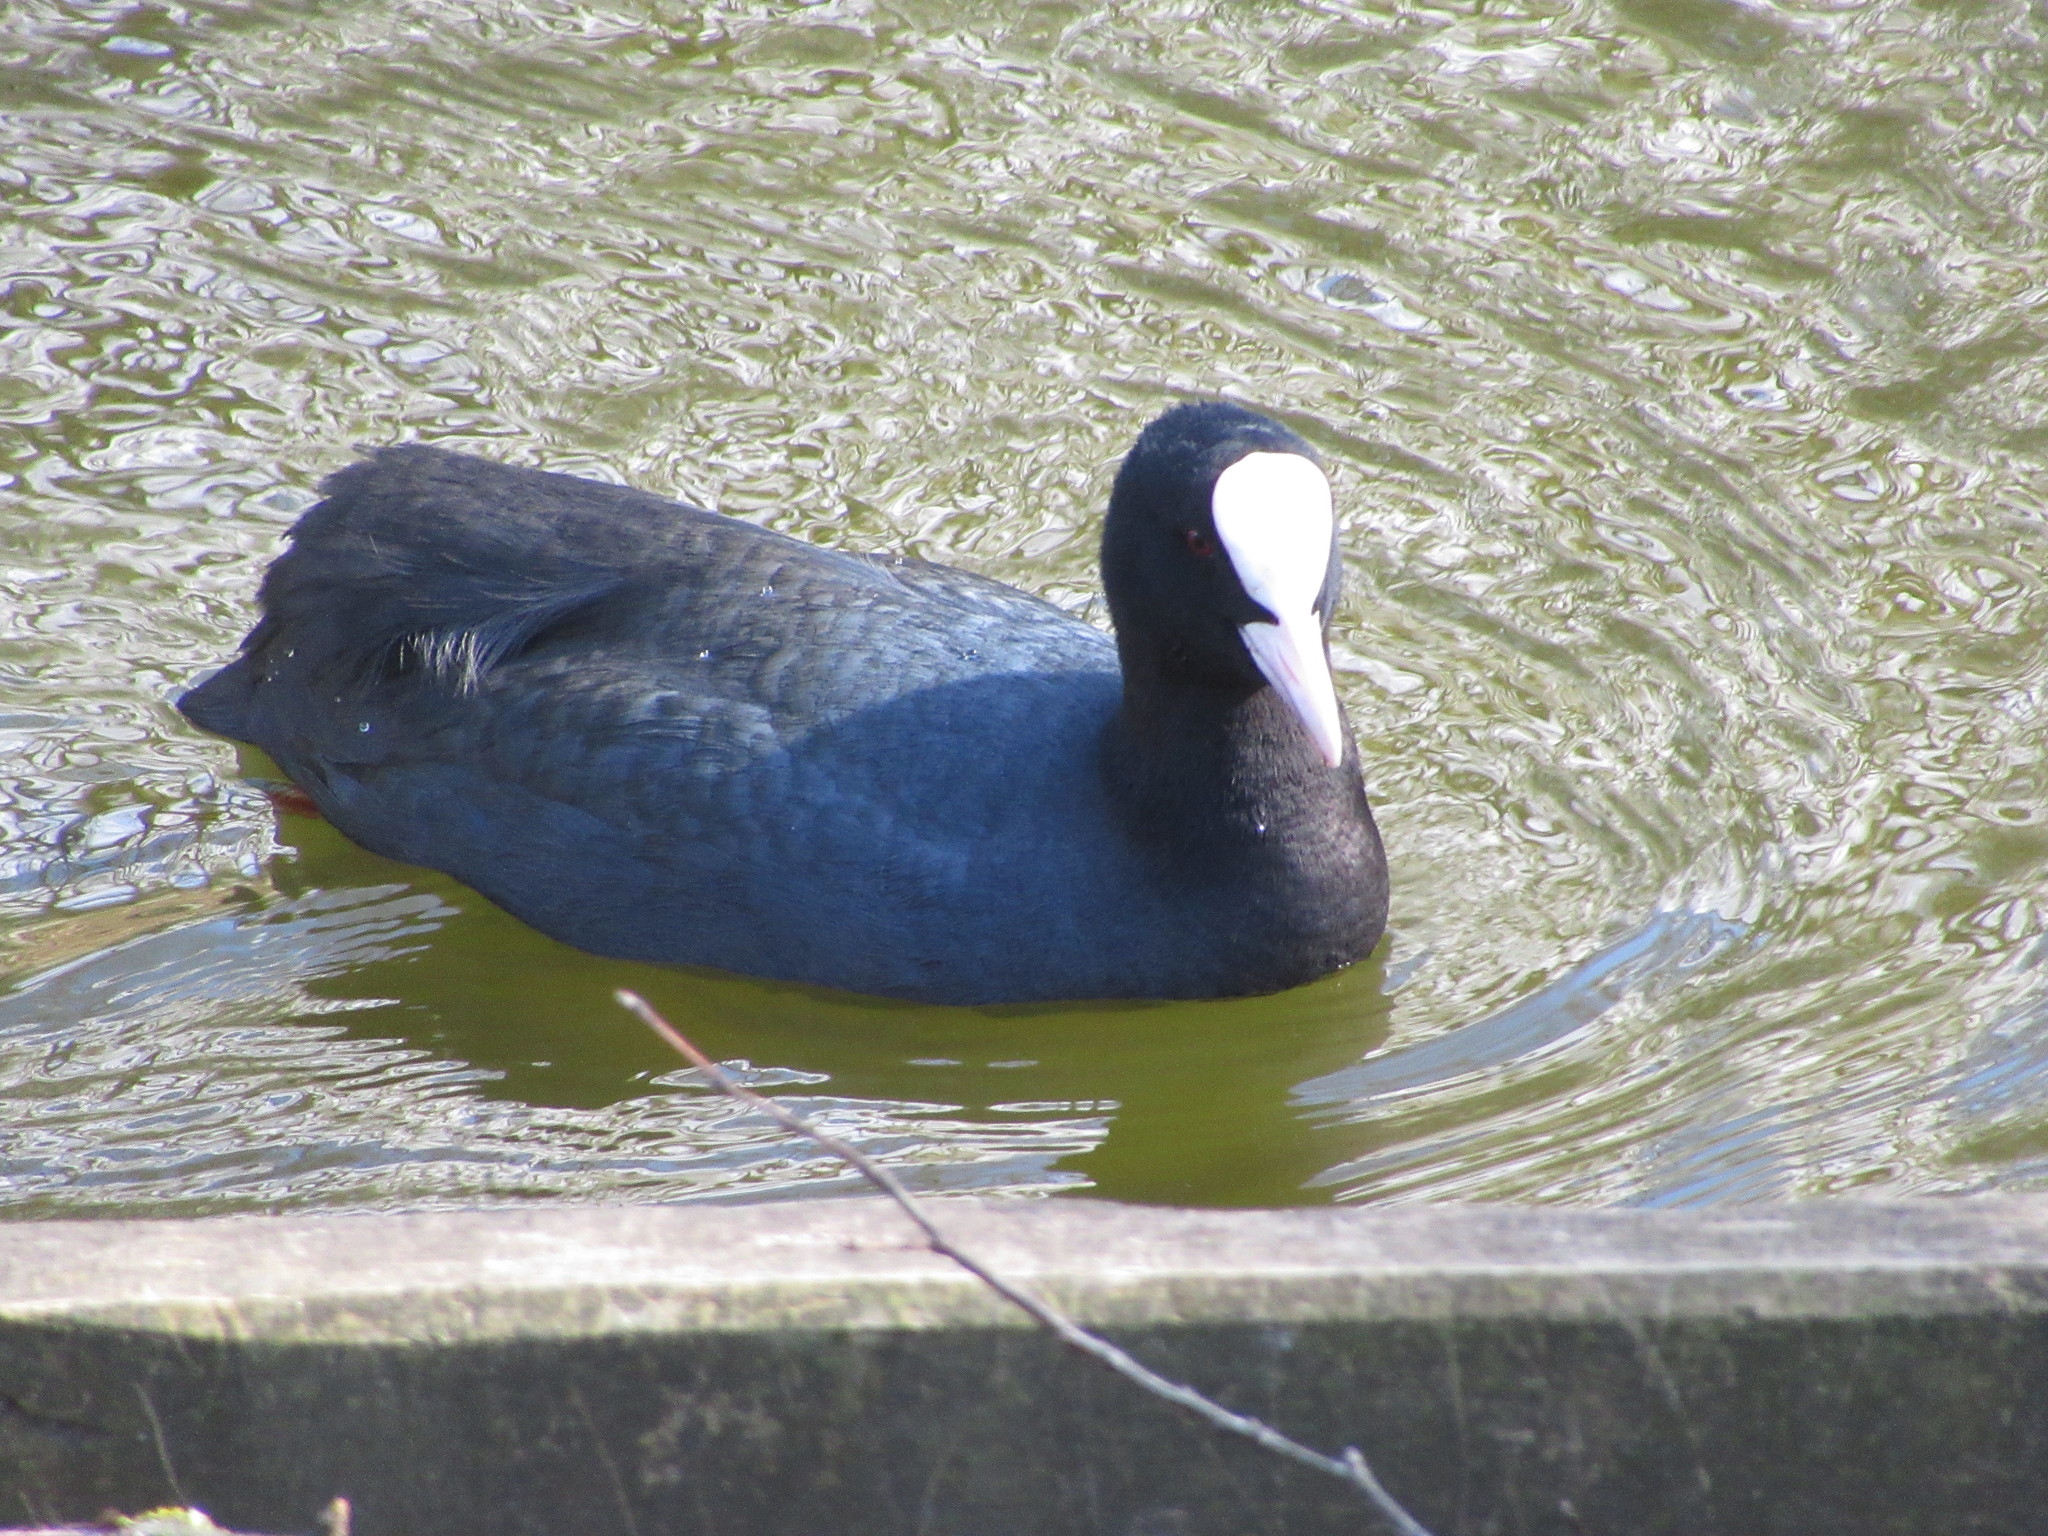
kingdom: Animalia
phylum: Chordata
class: Aves
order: Gruiformes
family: Rallidae
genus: Fulica
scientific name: Fulica atra
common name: Eurasian coot
